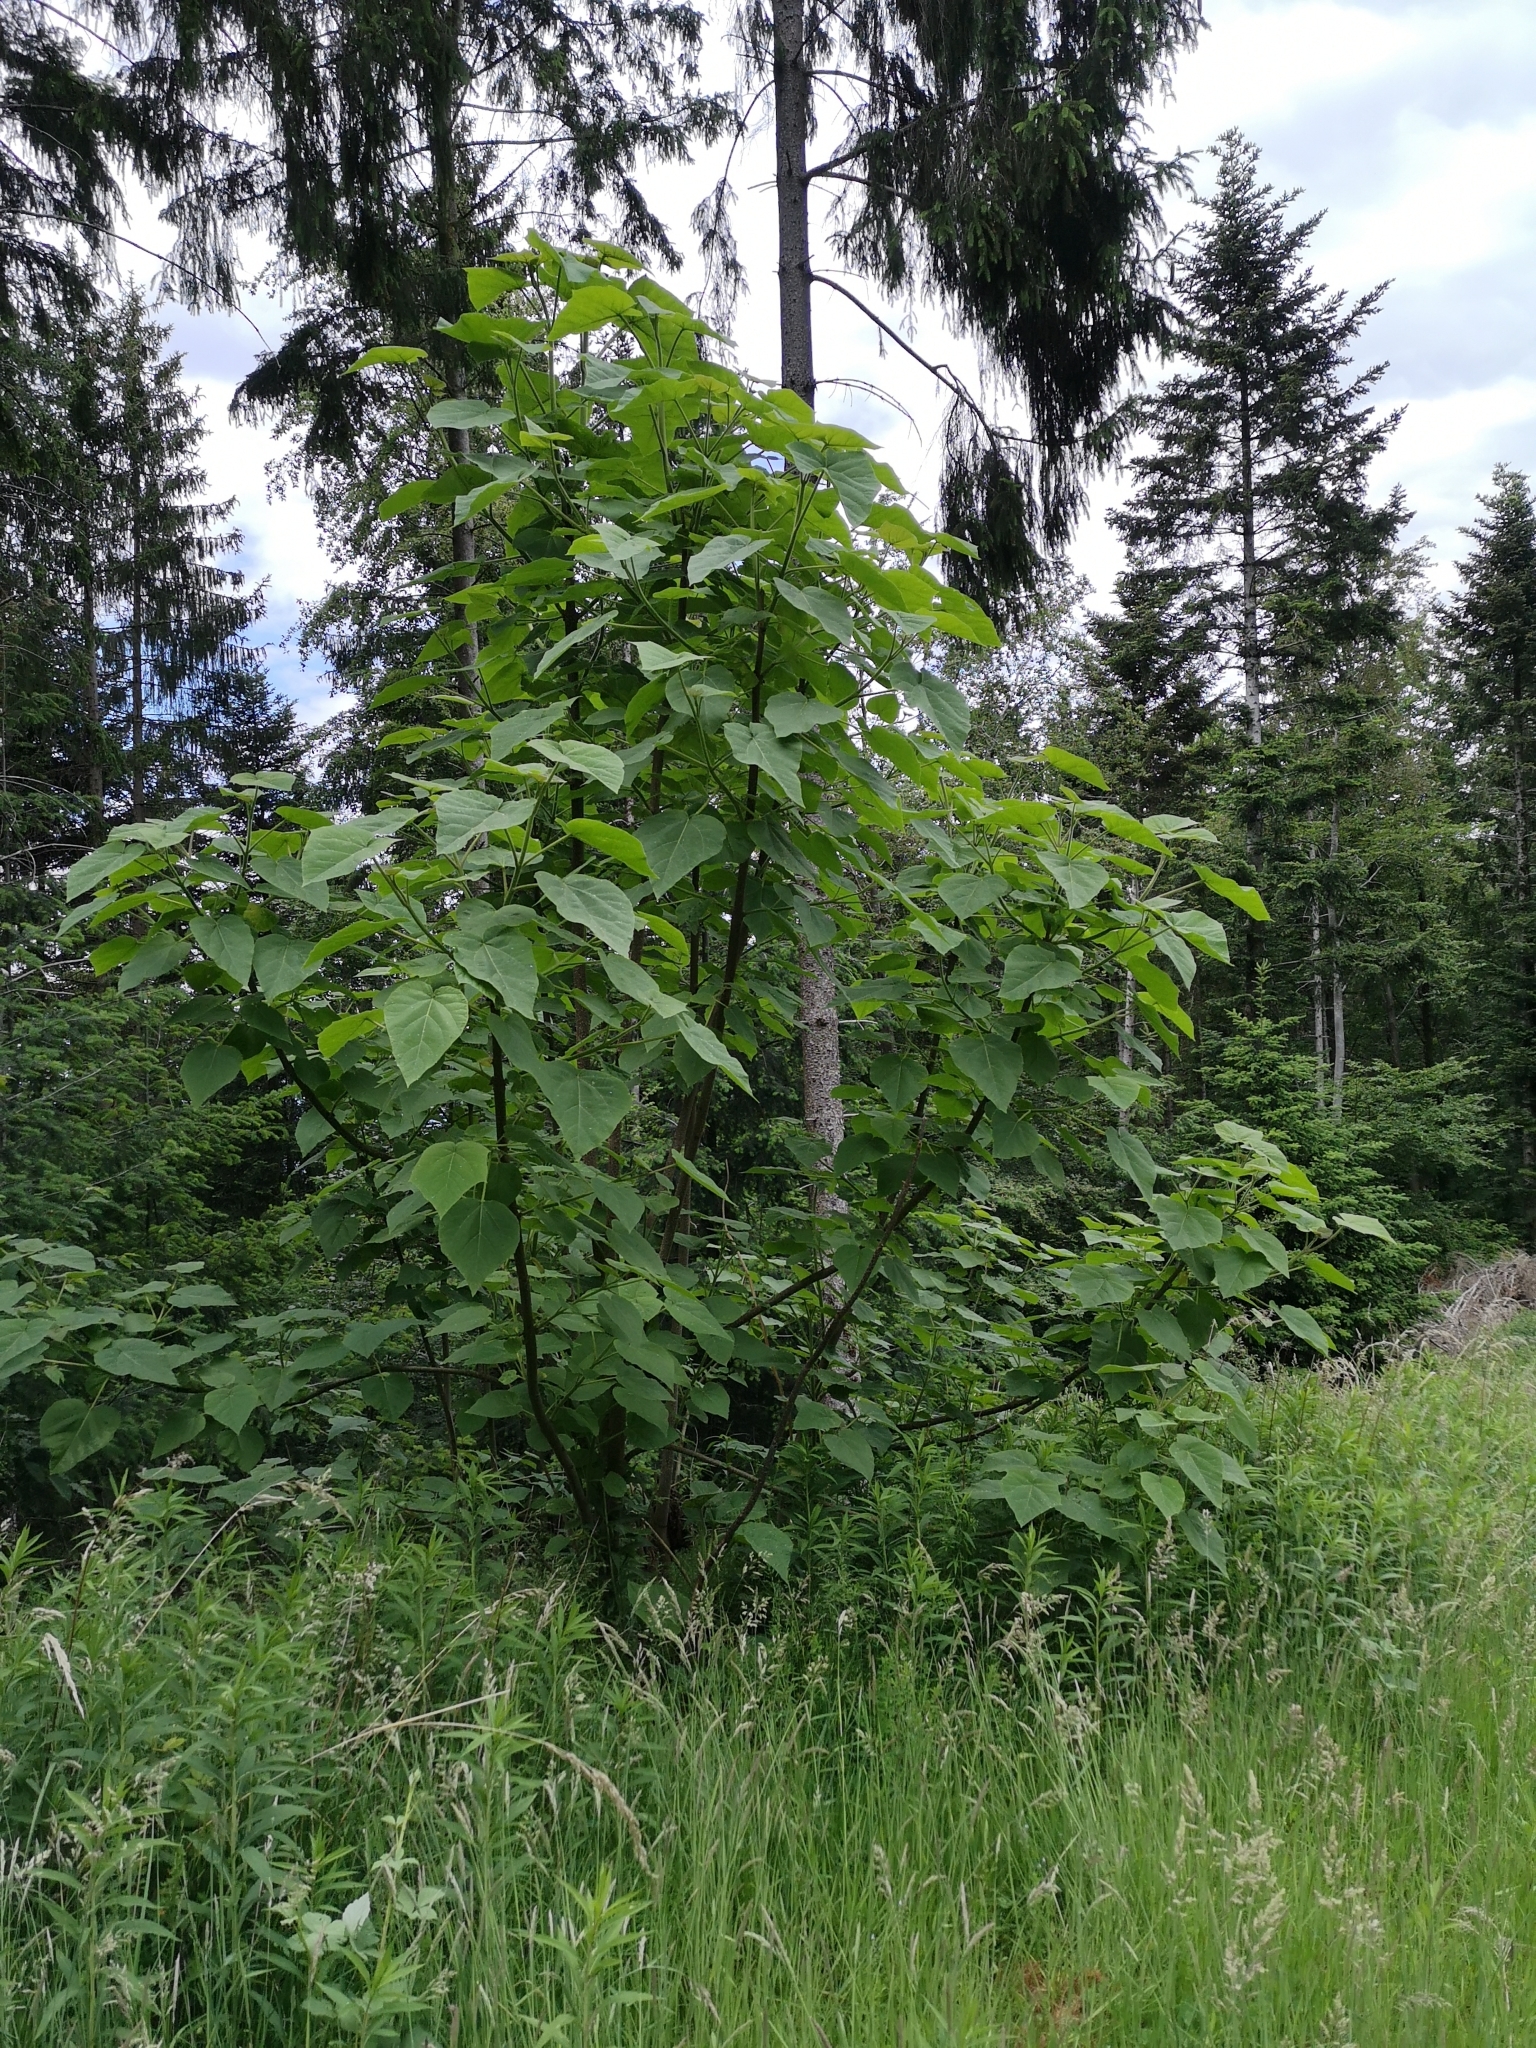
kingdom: Plantae
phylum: Tracheophyta
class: Magnoliopsida
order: Lamiales
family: Paulowniaceae
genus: Paulownia
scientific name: Paulownia tomentosa
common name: Foxglove-tree
